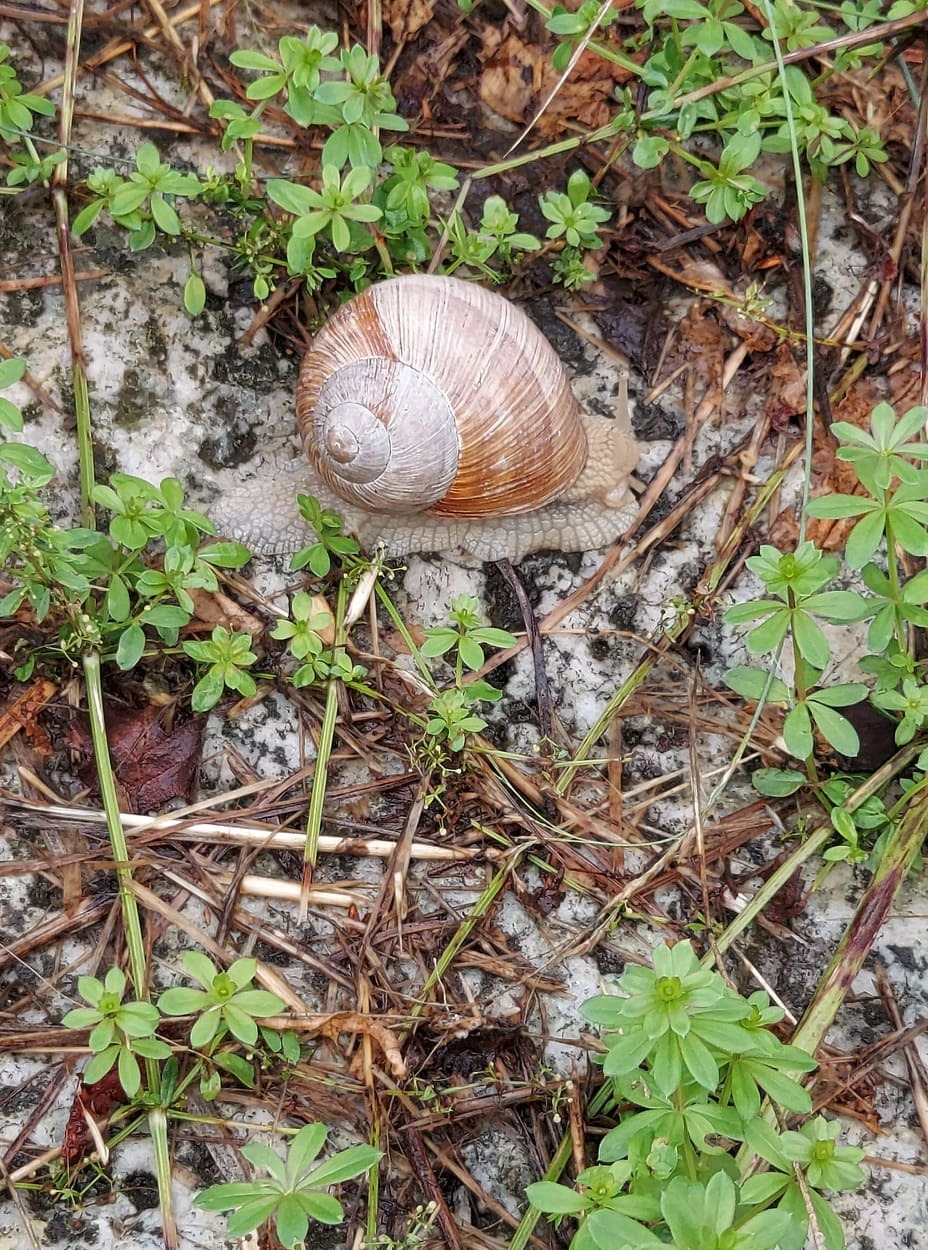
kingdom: Animalia
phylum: Mollusca
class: Gastropoda
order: Stylommatophora
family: Helicidae
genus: Helix
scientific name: Helix pomatia
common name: Roman snail
